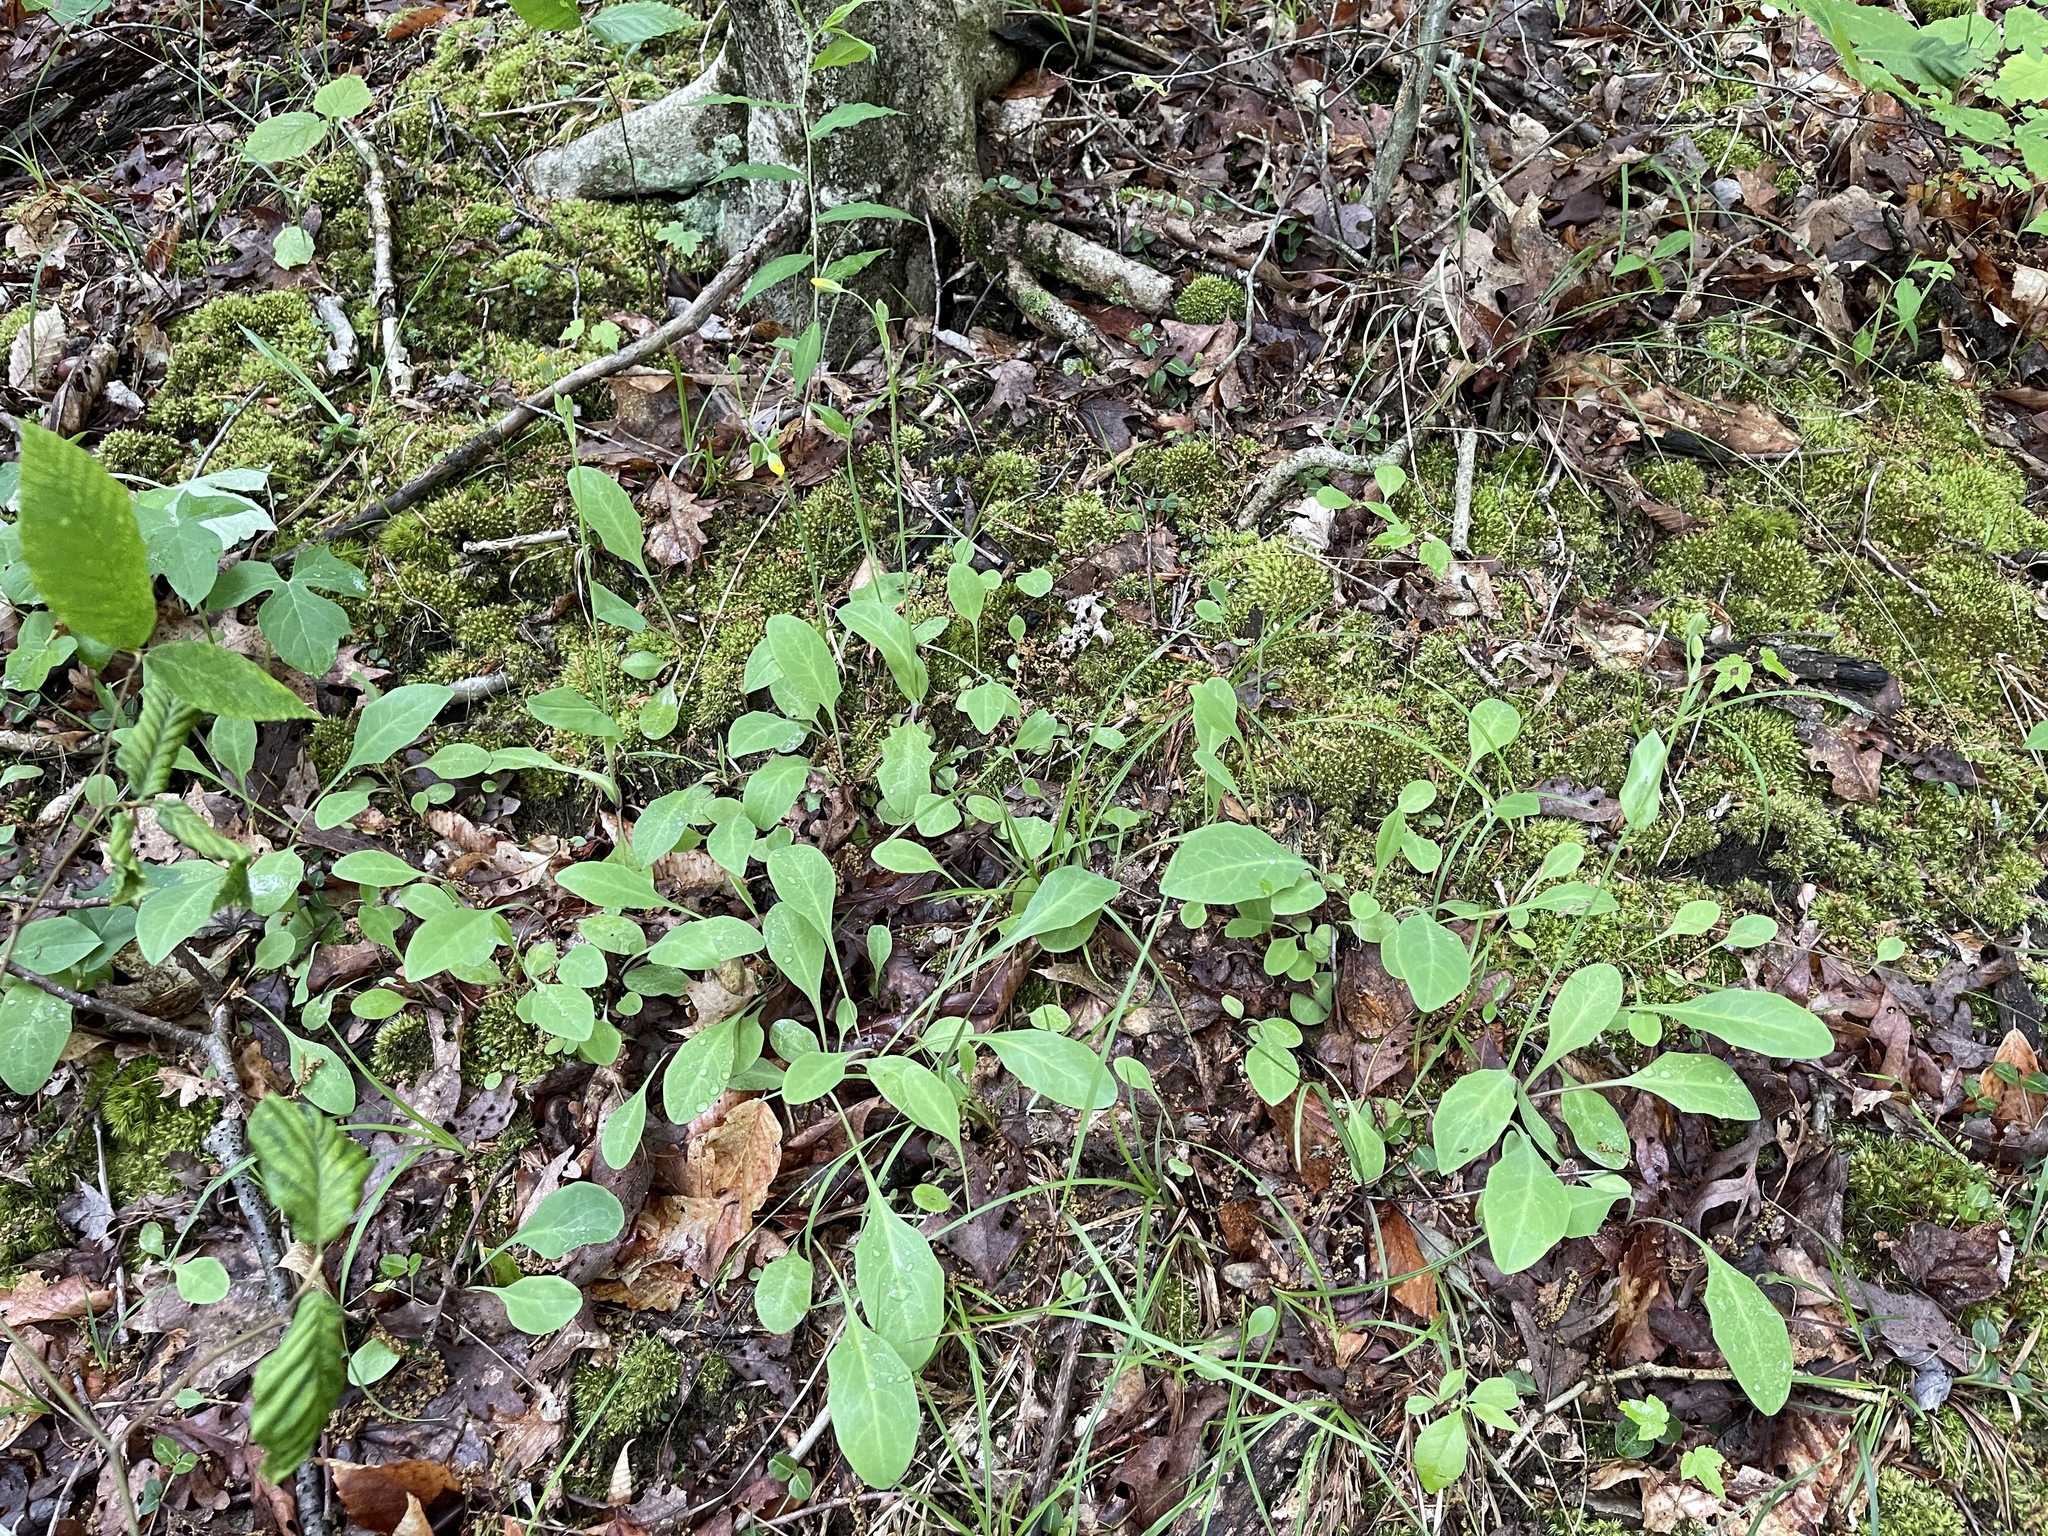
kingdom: Plantae
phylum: Tracheophyta
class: Magnoliopsida
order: Asterales
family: Asteraceae
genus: Krigia
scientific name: Krigia biflora
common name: Orange dwarf-dandelion
